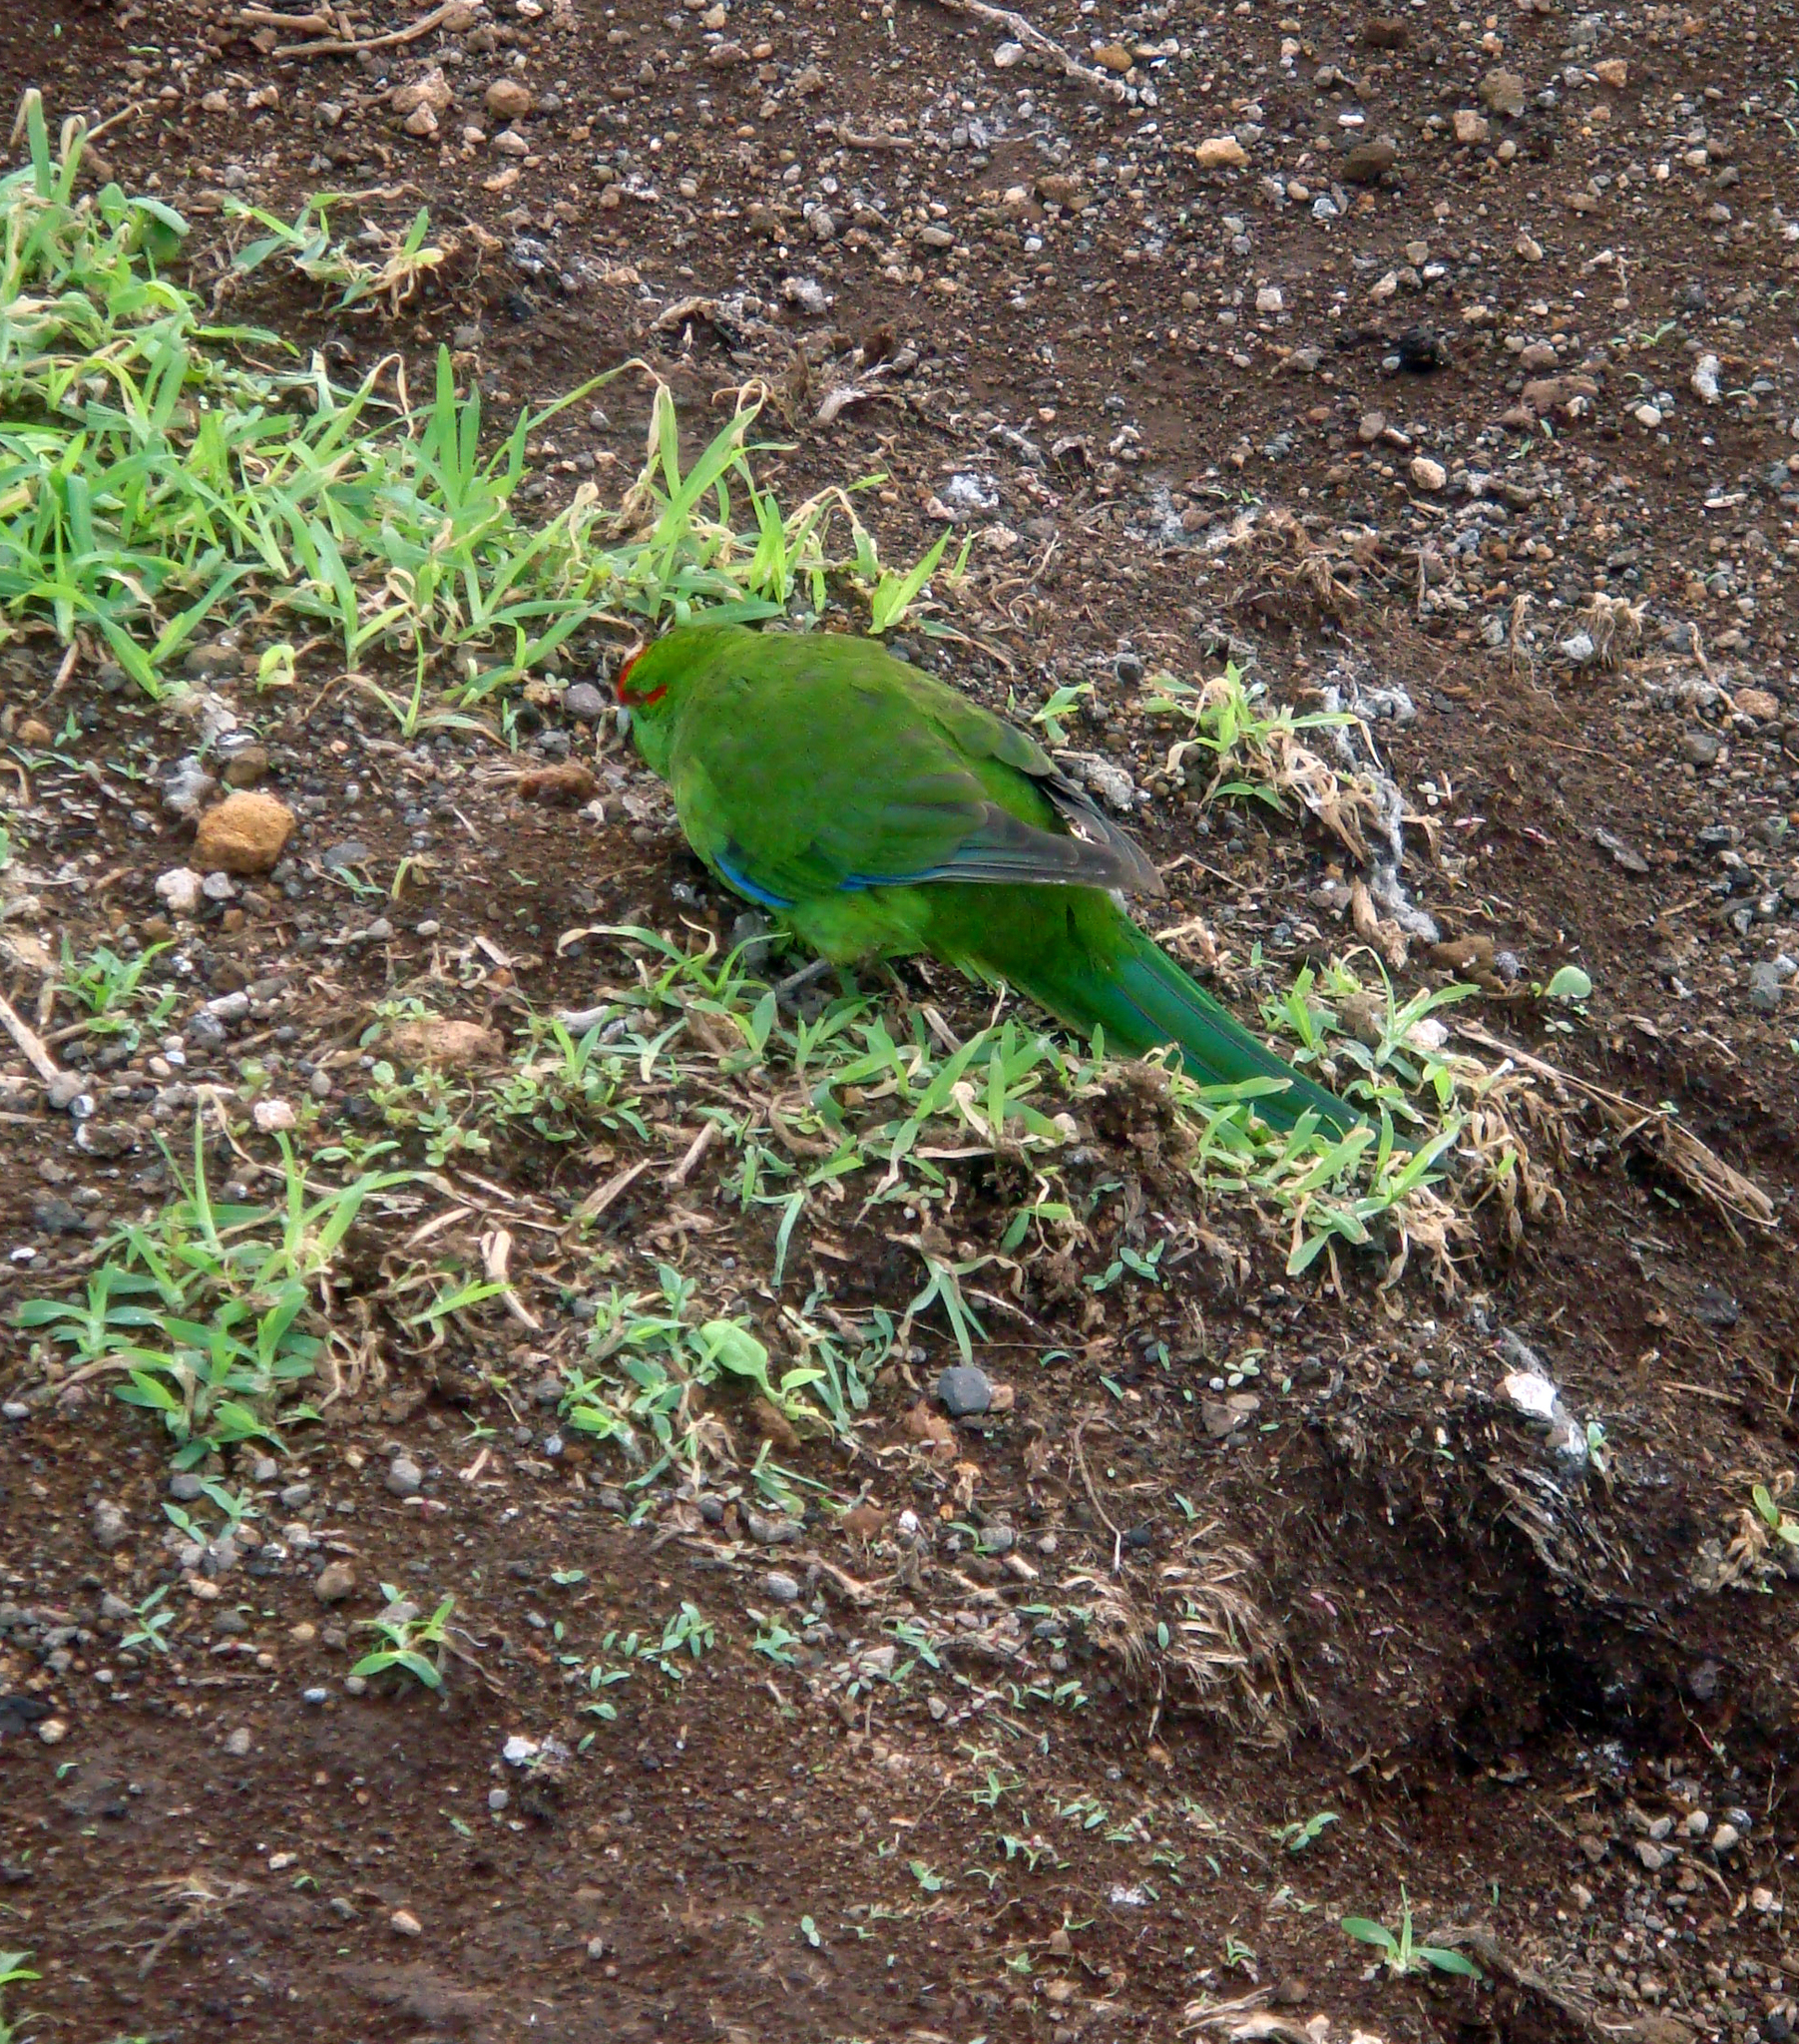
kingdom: Animalia
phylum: Chordata
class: Aves
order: Psittaciformes
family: Psittacidae
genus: Cyanoramphus
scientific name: Cyanoramphus novaezelandiae
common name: Red-fronted parakeet
